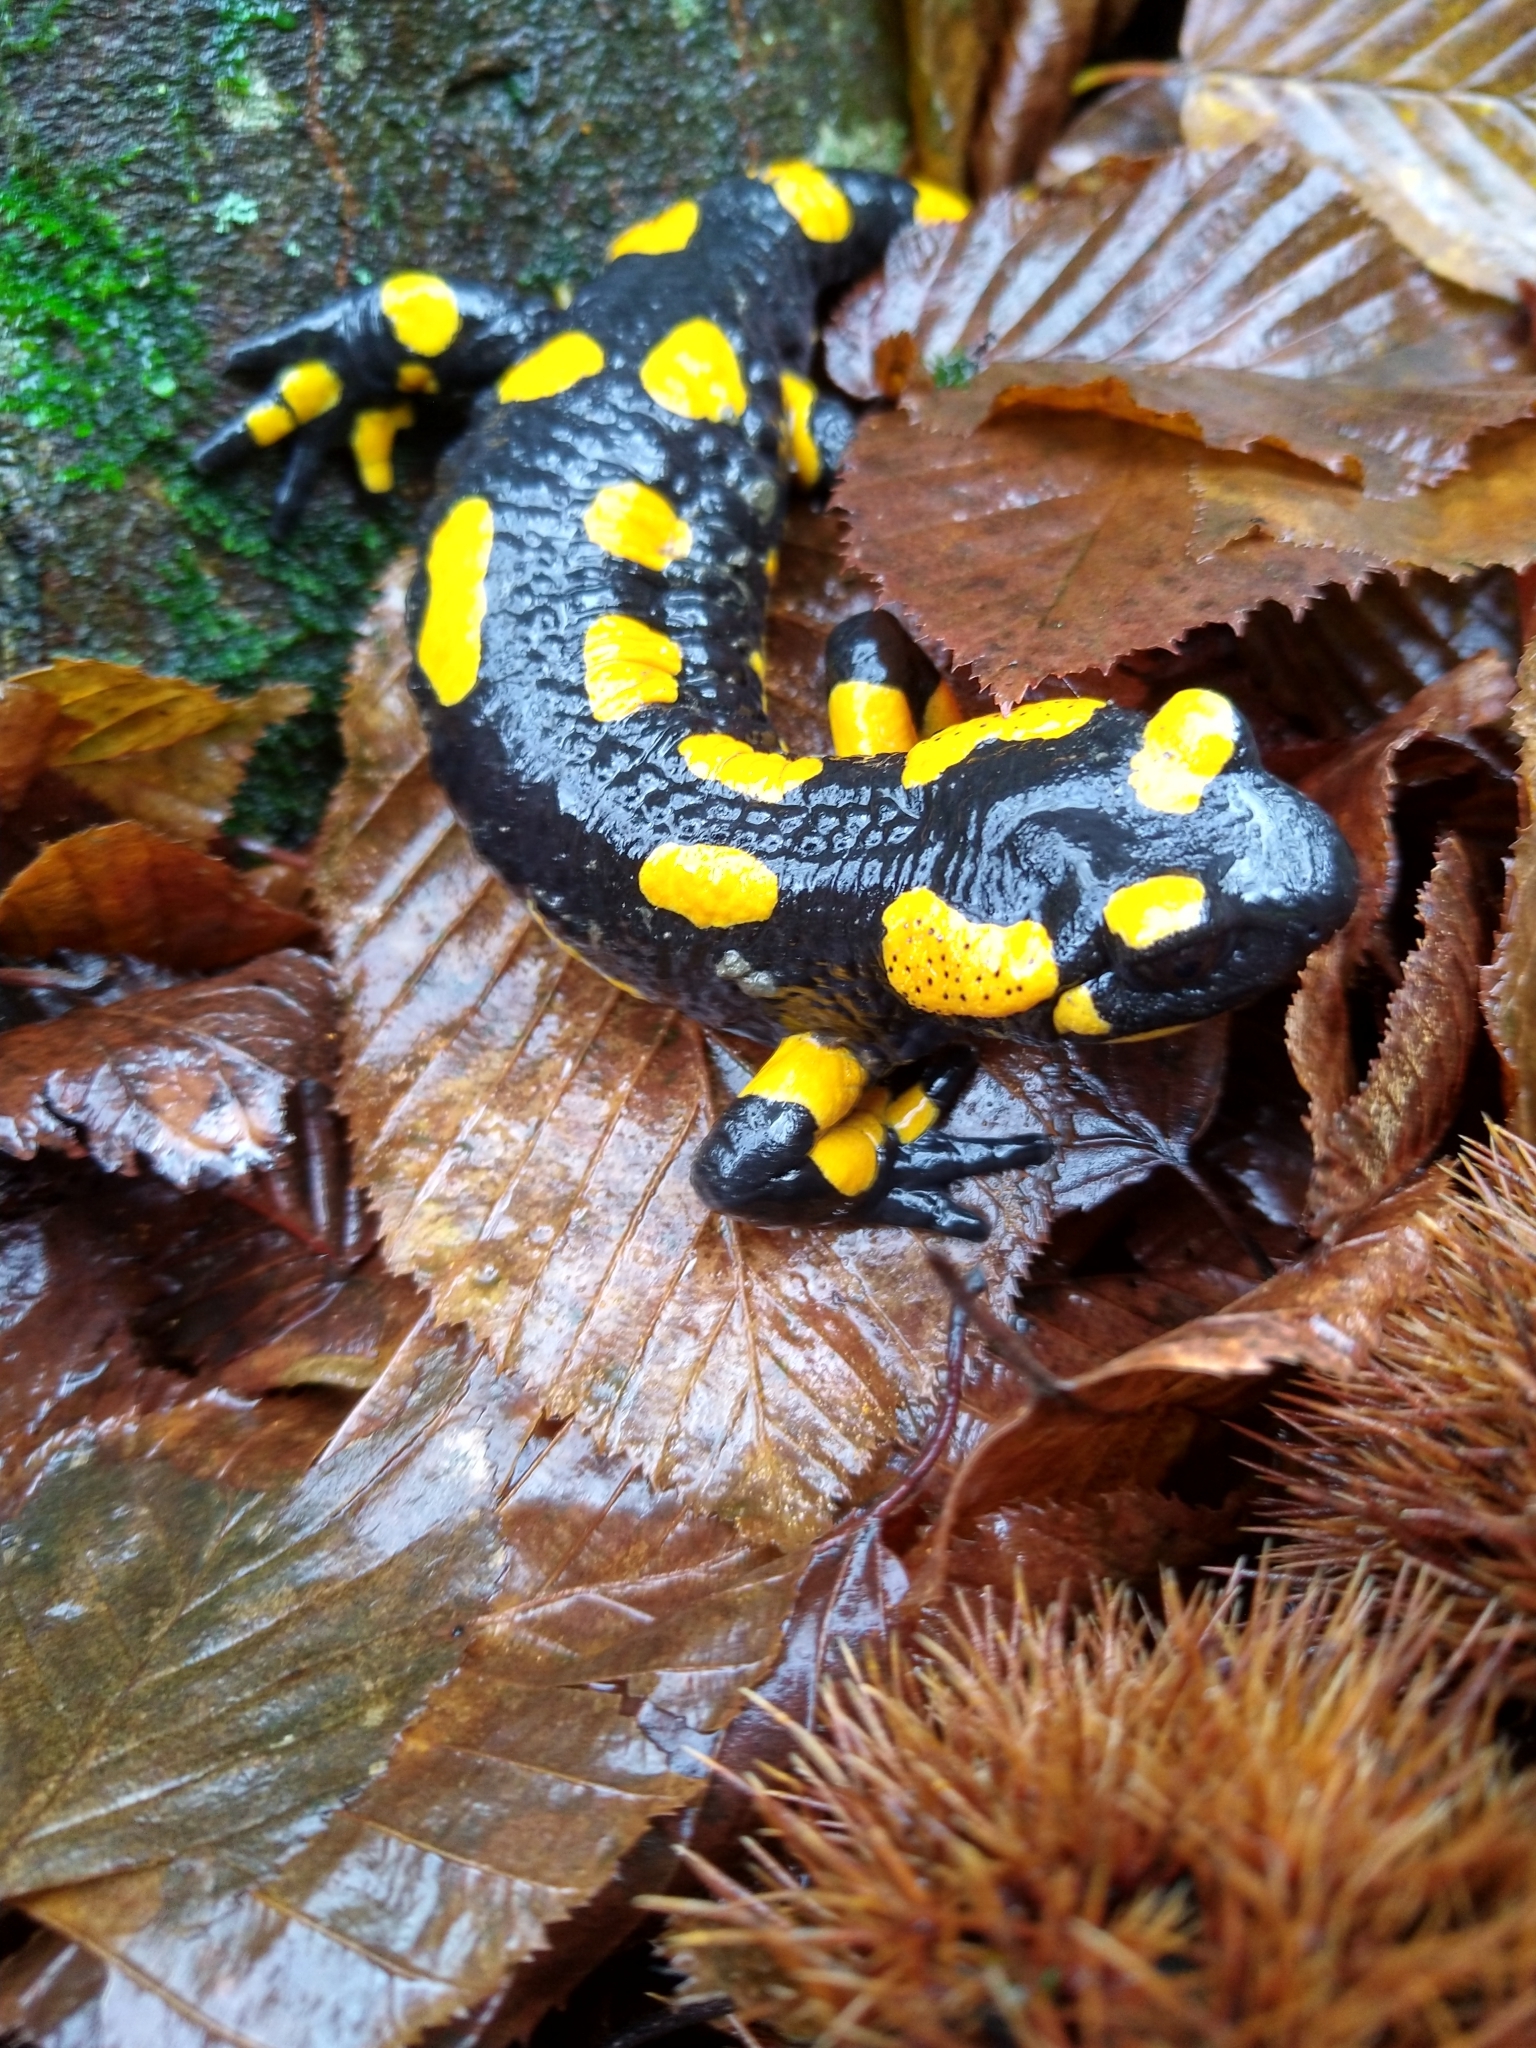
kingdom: Animalia
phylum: Chordata
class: Amphibia
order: Caudata
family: Salamandridae
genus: Salamandra
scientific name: Salamandra salamandra
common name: Fire salamander
